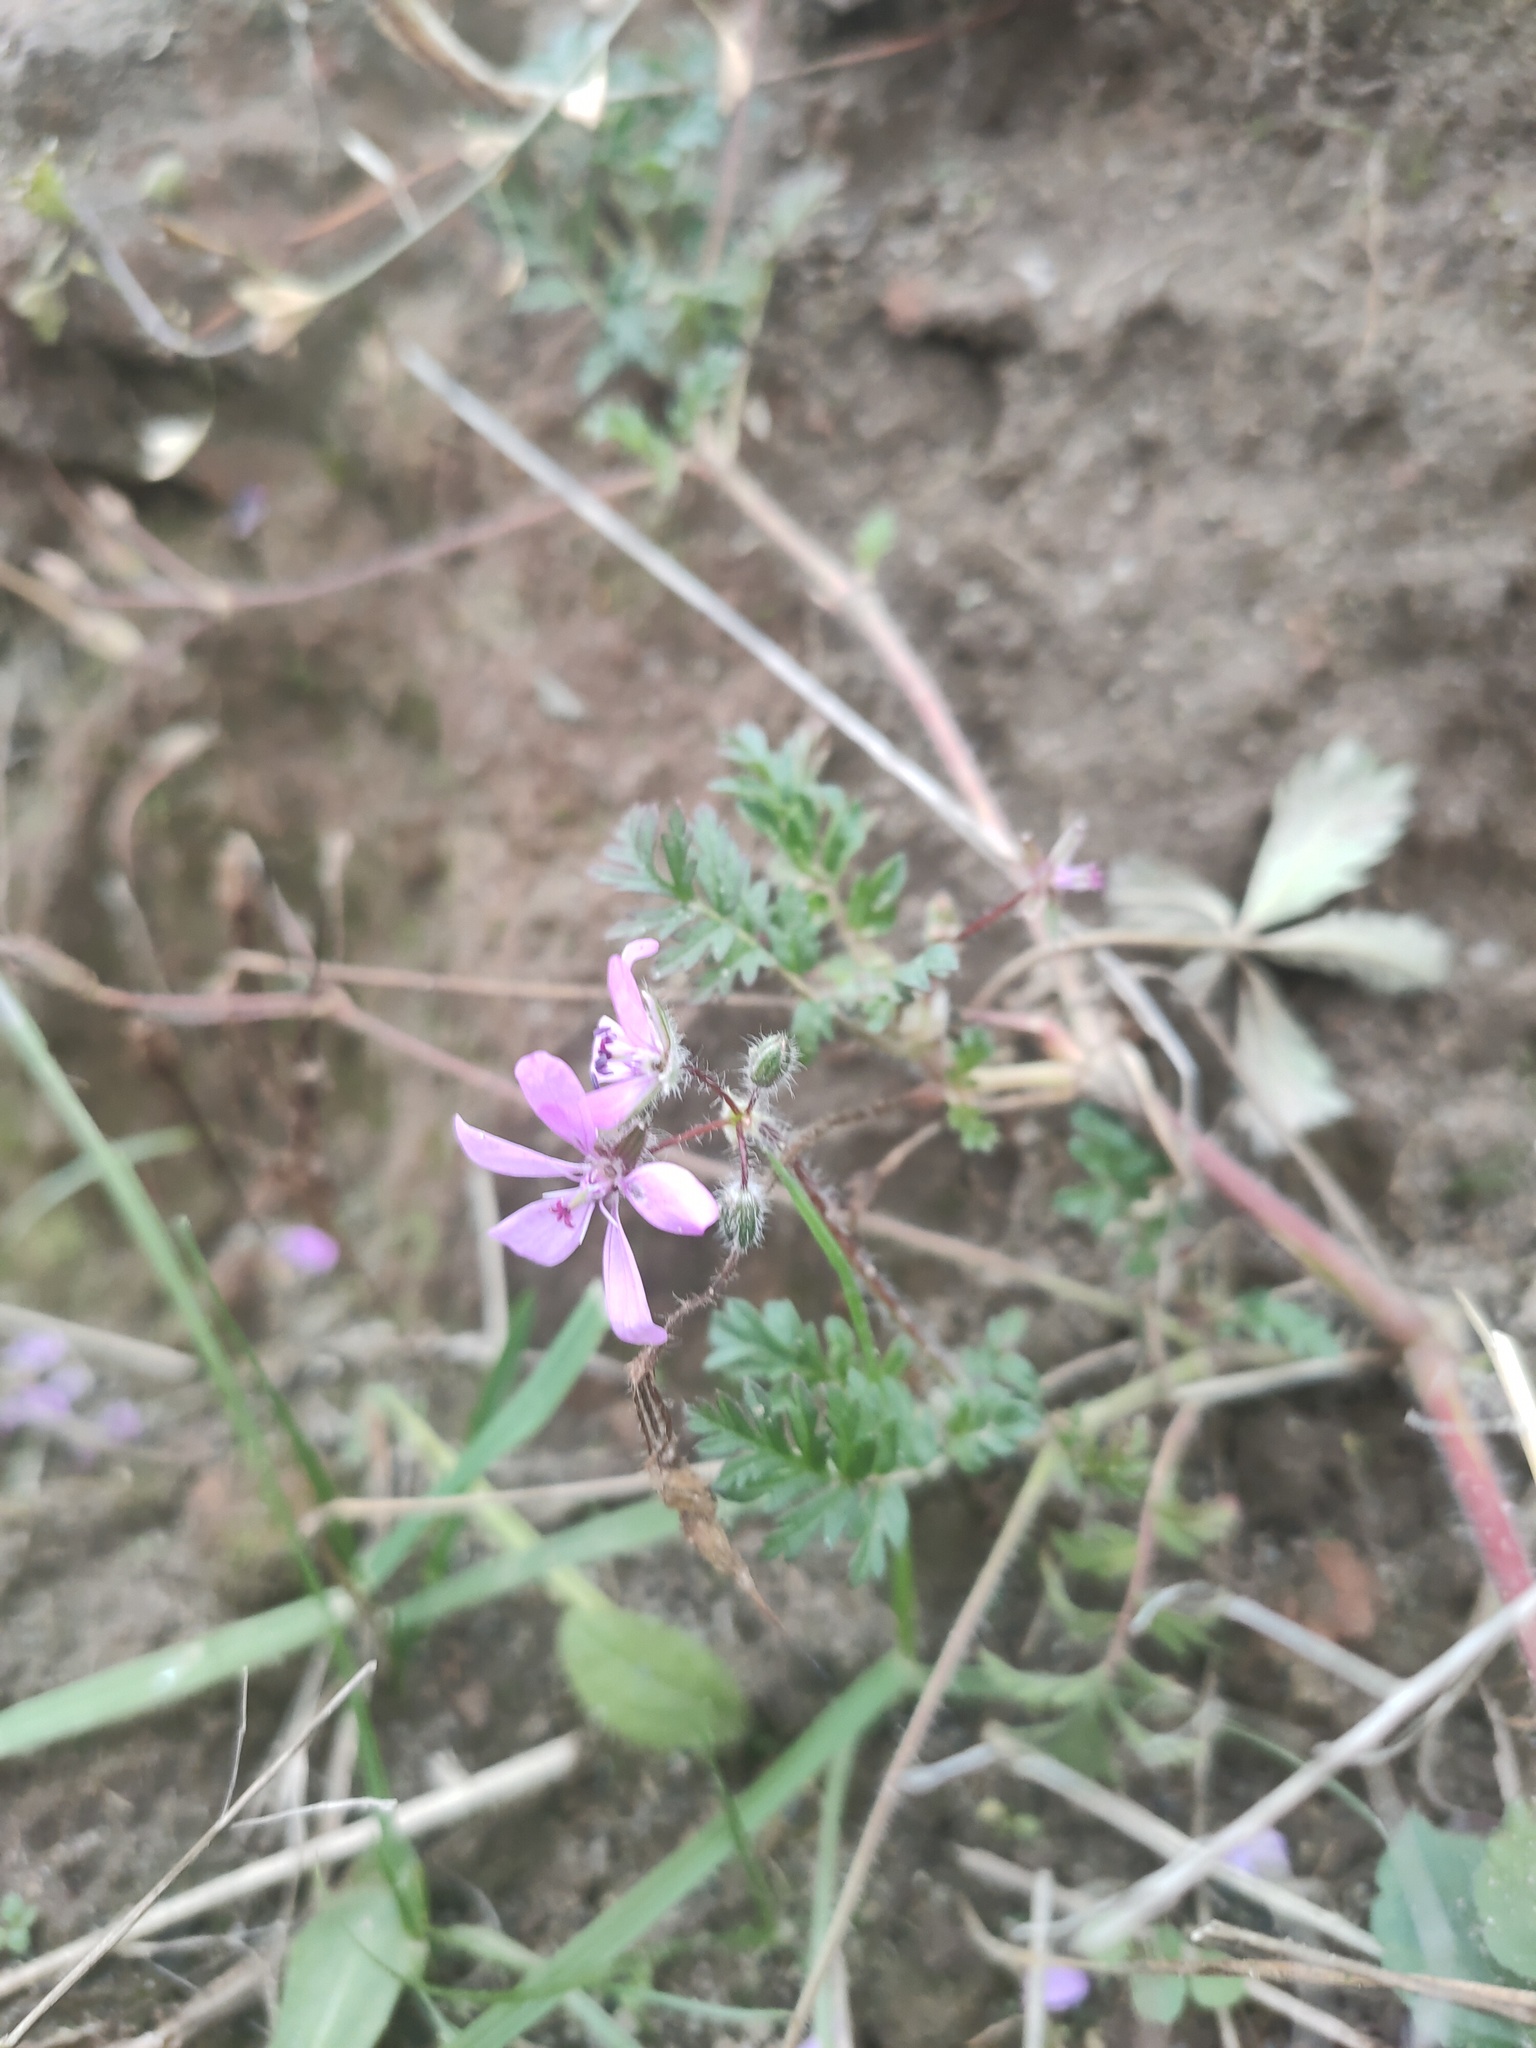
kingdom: Plantae
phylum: Tracheophyta
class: Magnoliopsida
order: Geraniales
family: Geraniaceae
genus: Erodium
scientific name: Erodium cicutarium
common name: Common stork's-bill
